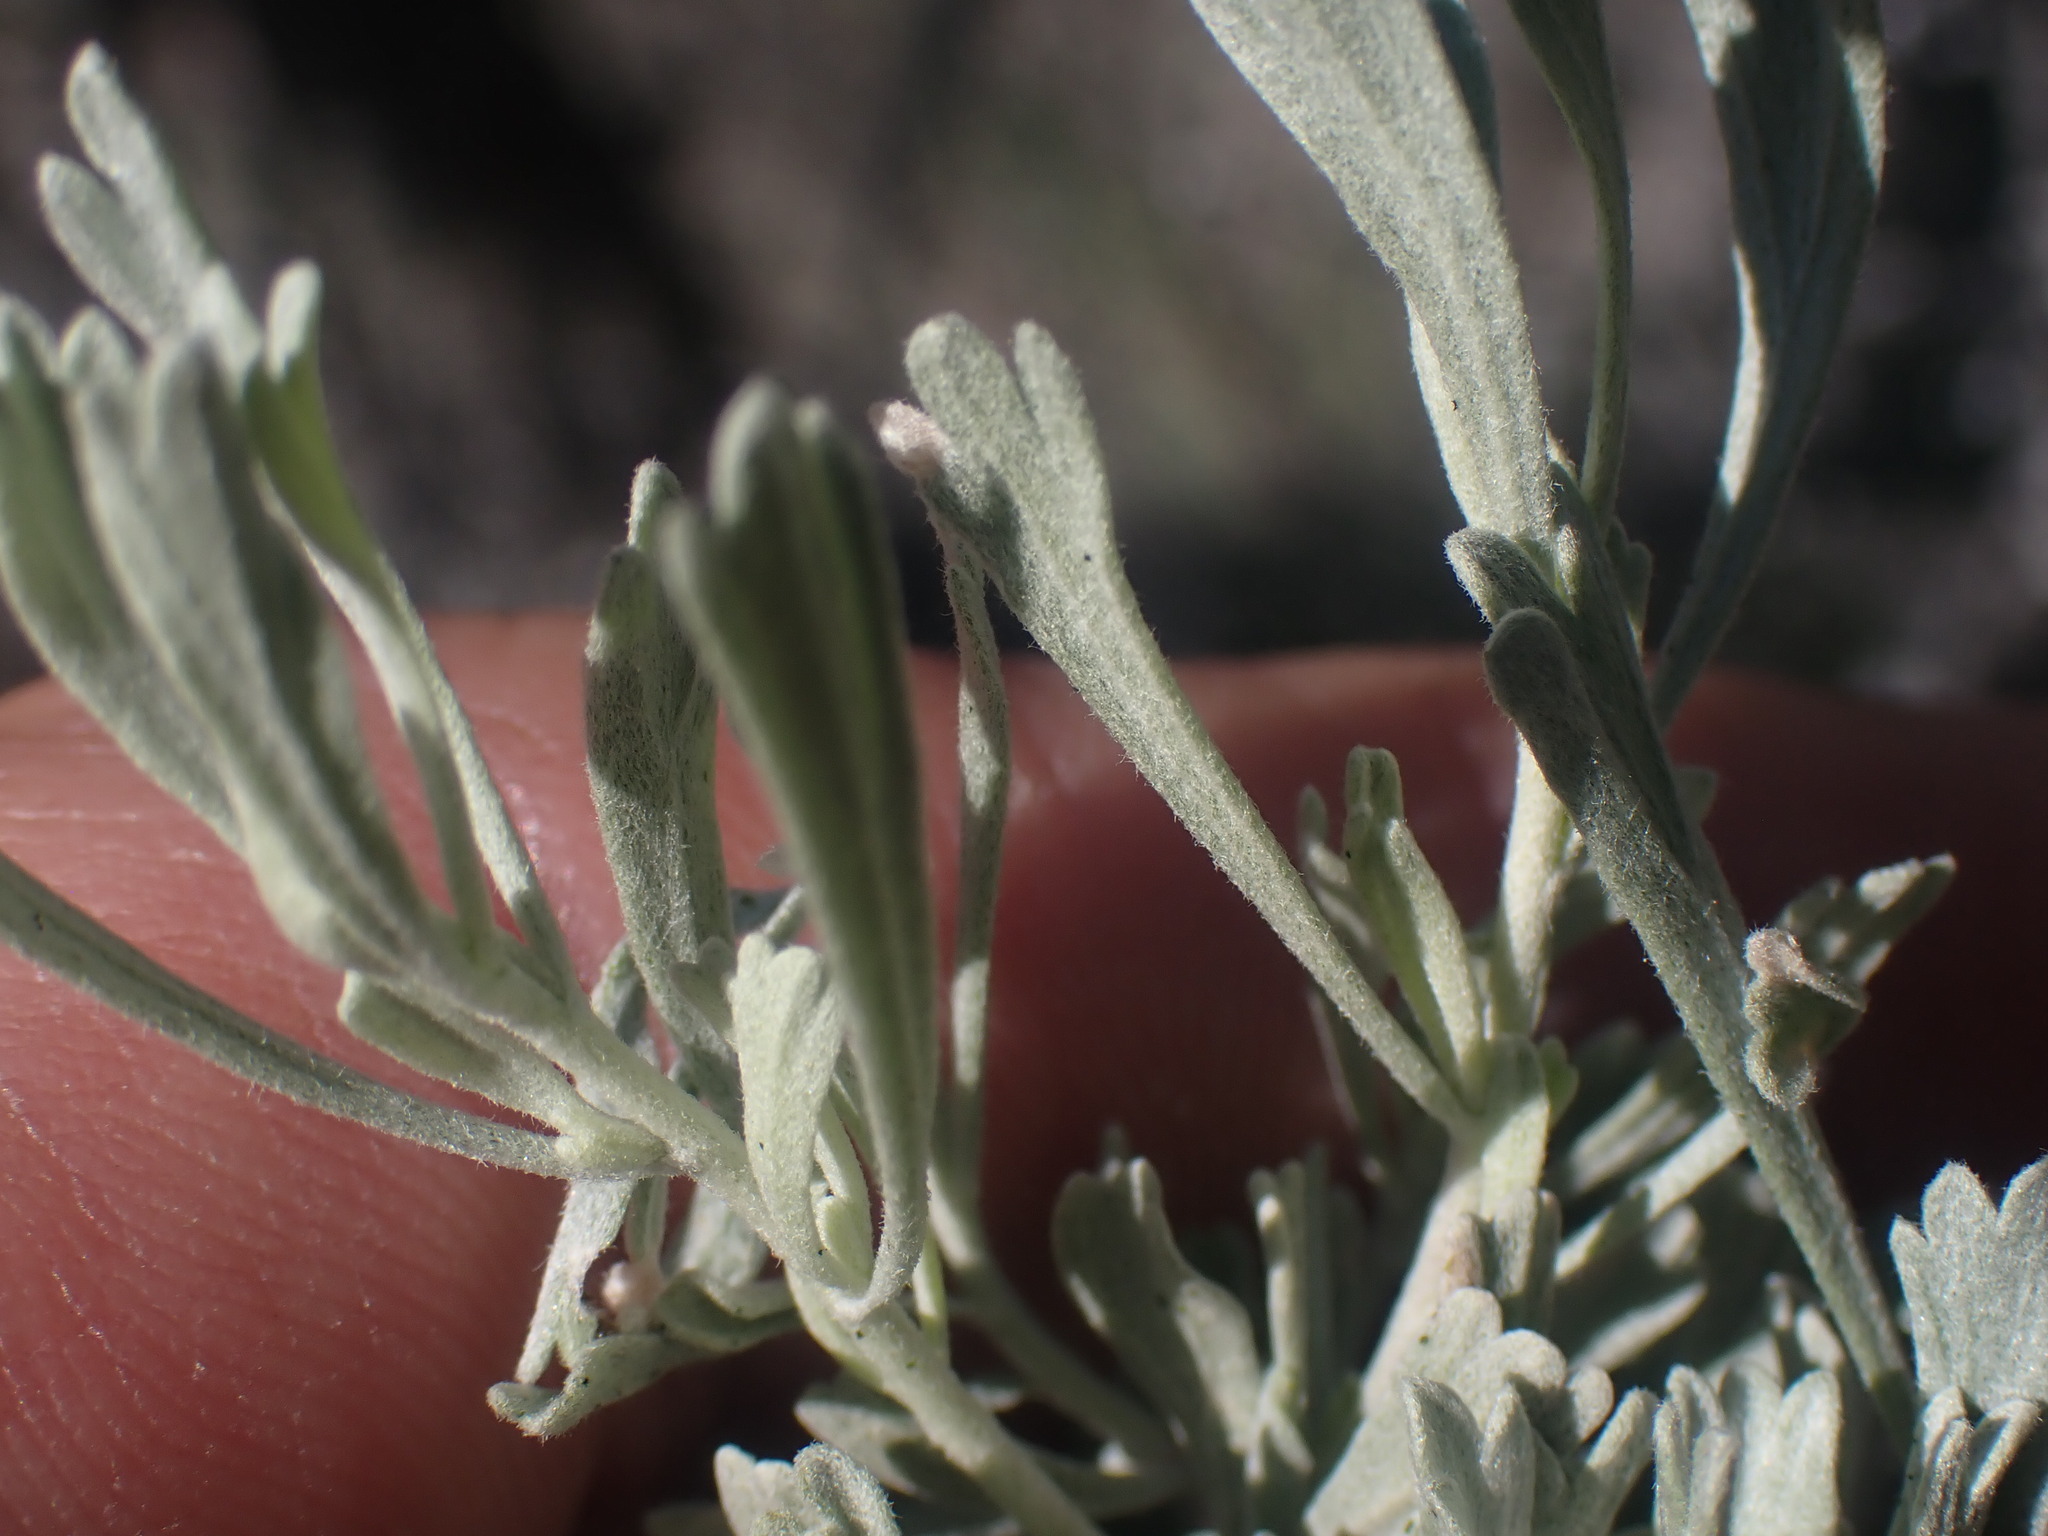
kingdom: Plantae
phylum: Tracheophyta
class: Magnoliopsida
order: Asterales
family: Asteraceae
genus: Artemisia
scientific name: Artemisia tridentata
